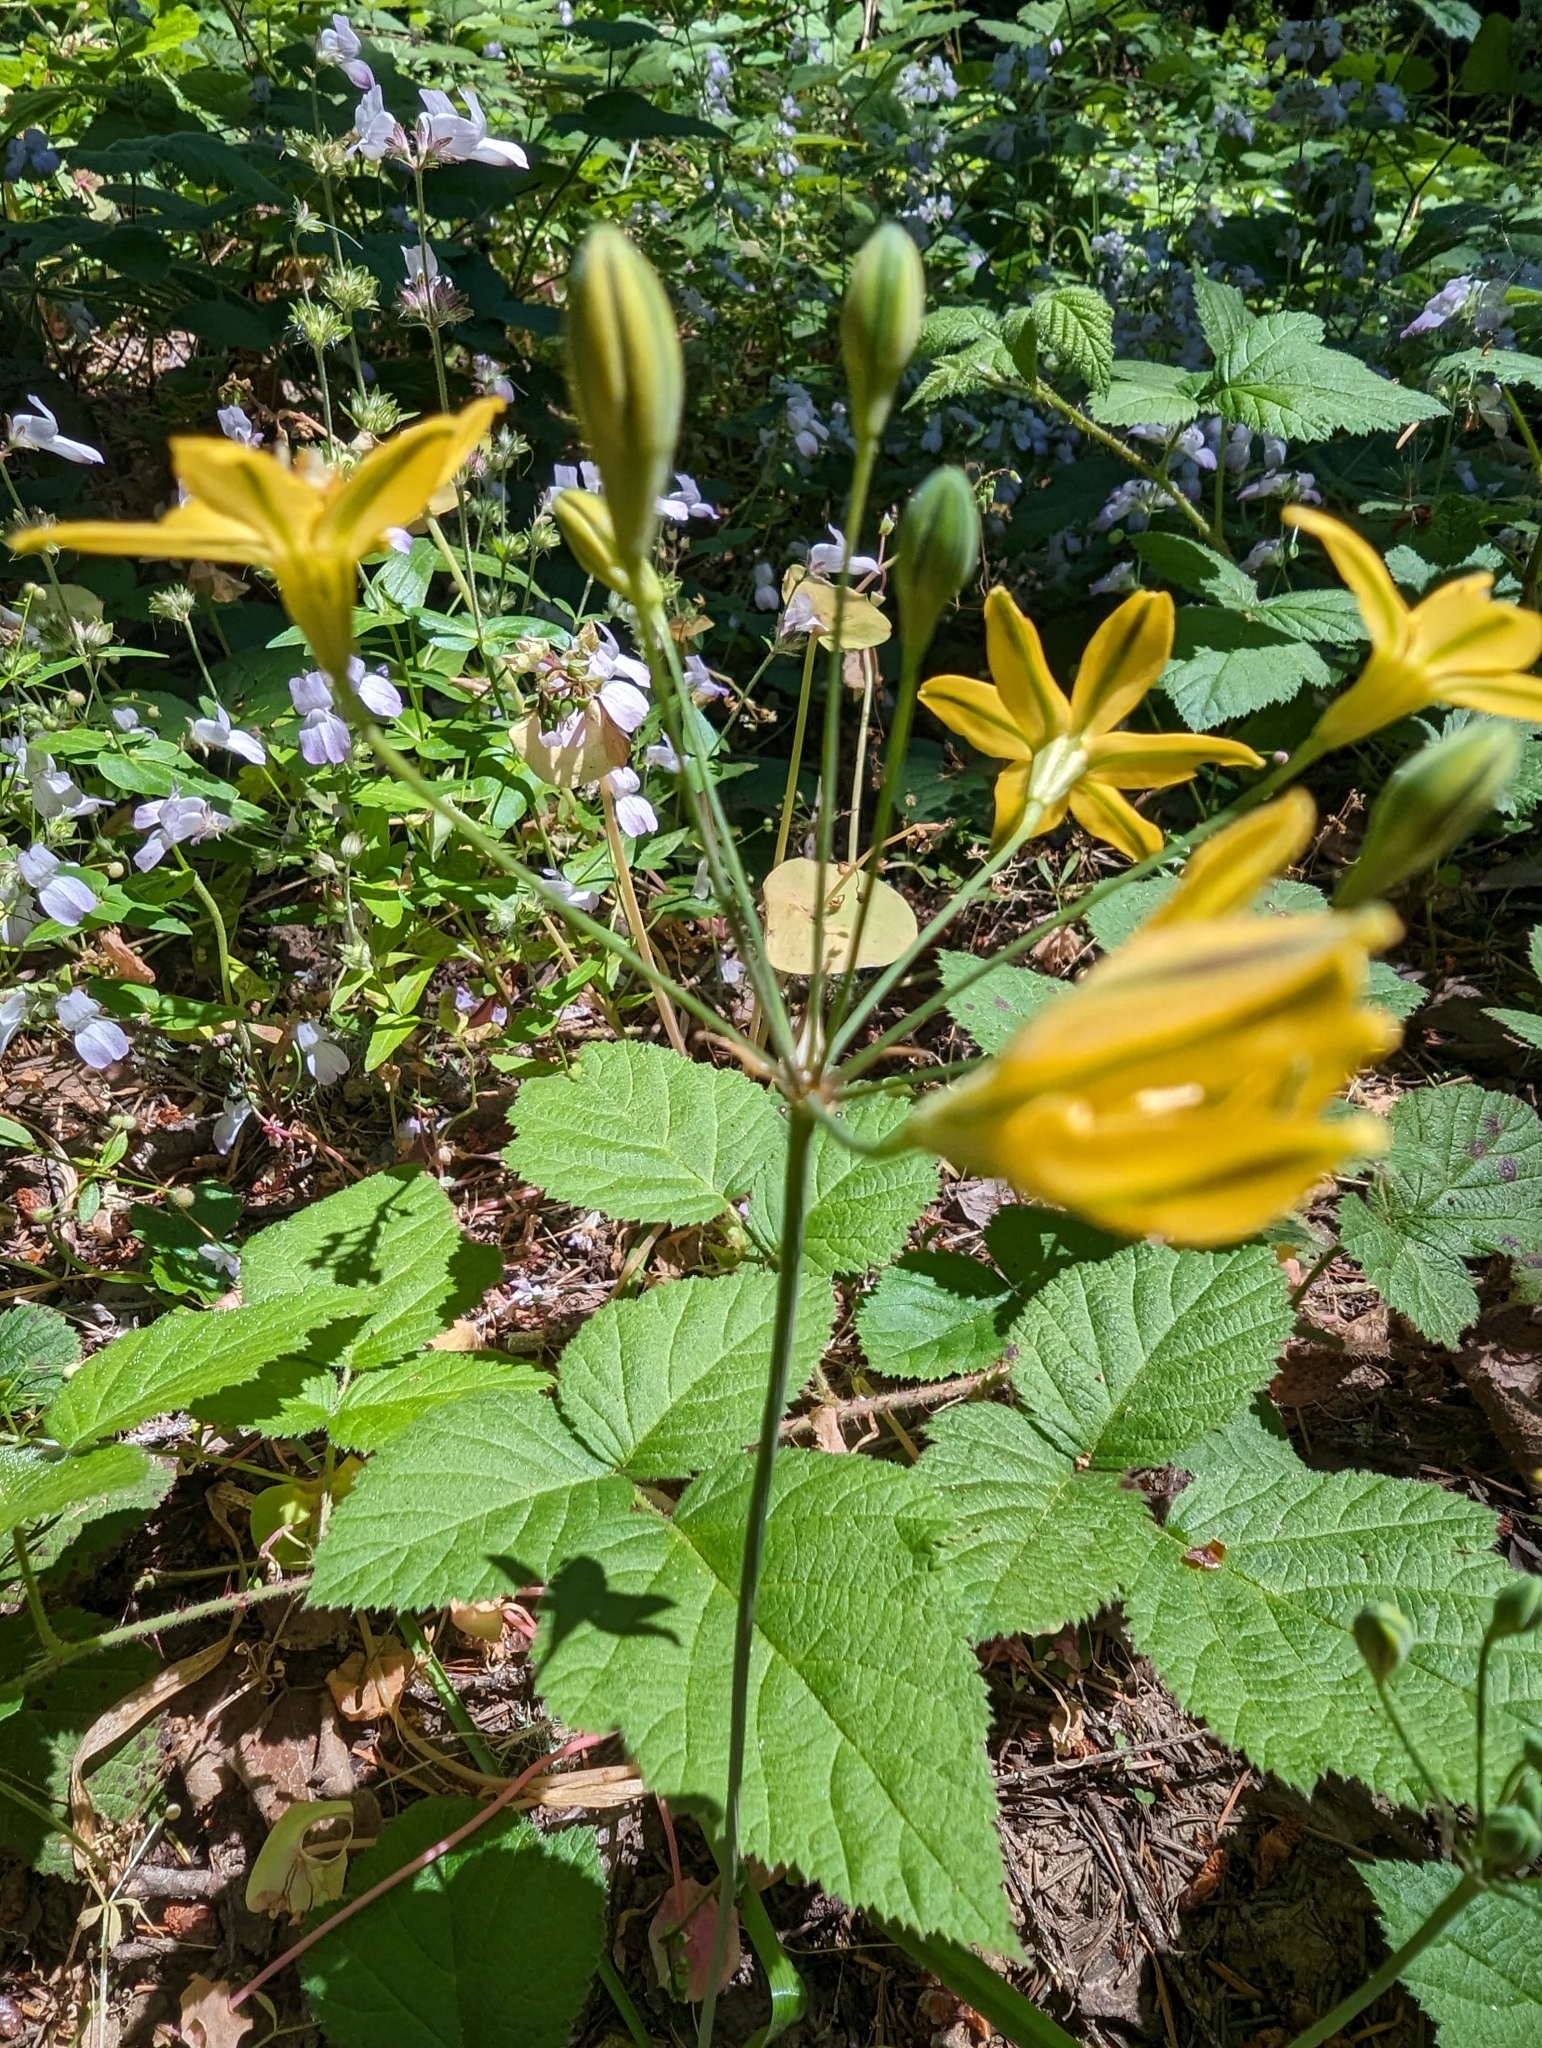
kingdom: Plantae
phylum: Tracheophyta
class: Liliopsida
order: Asparagales
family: Asparagaceae
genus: Triteleia
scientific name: Triteleia ixioides
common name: Yellow-brodiaea
